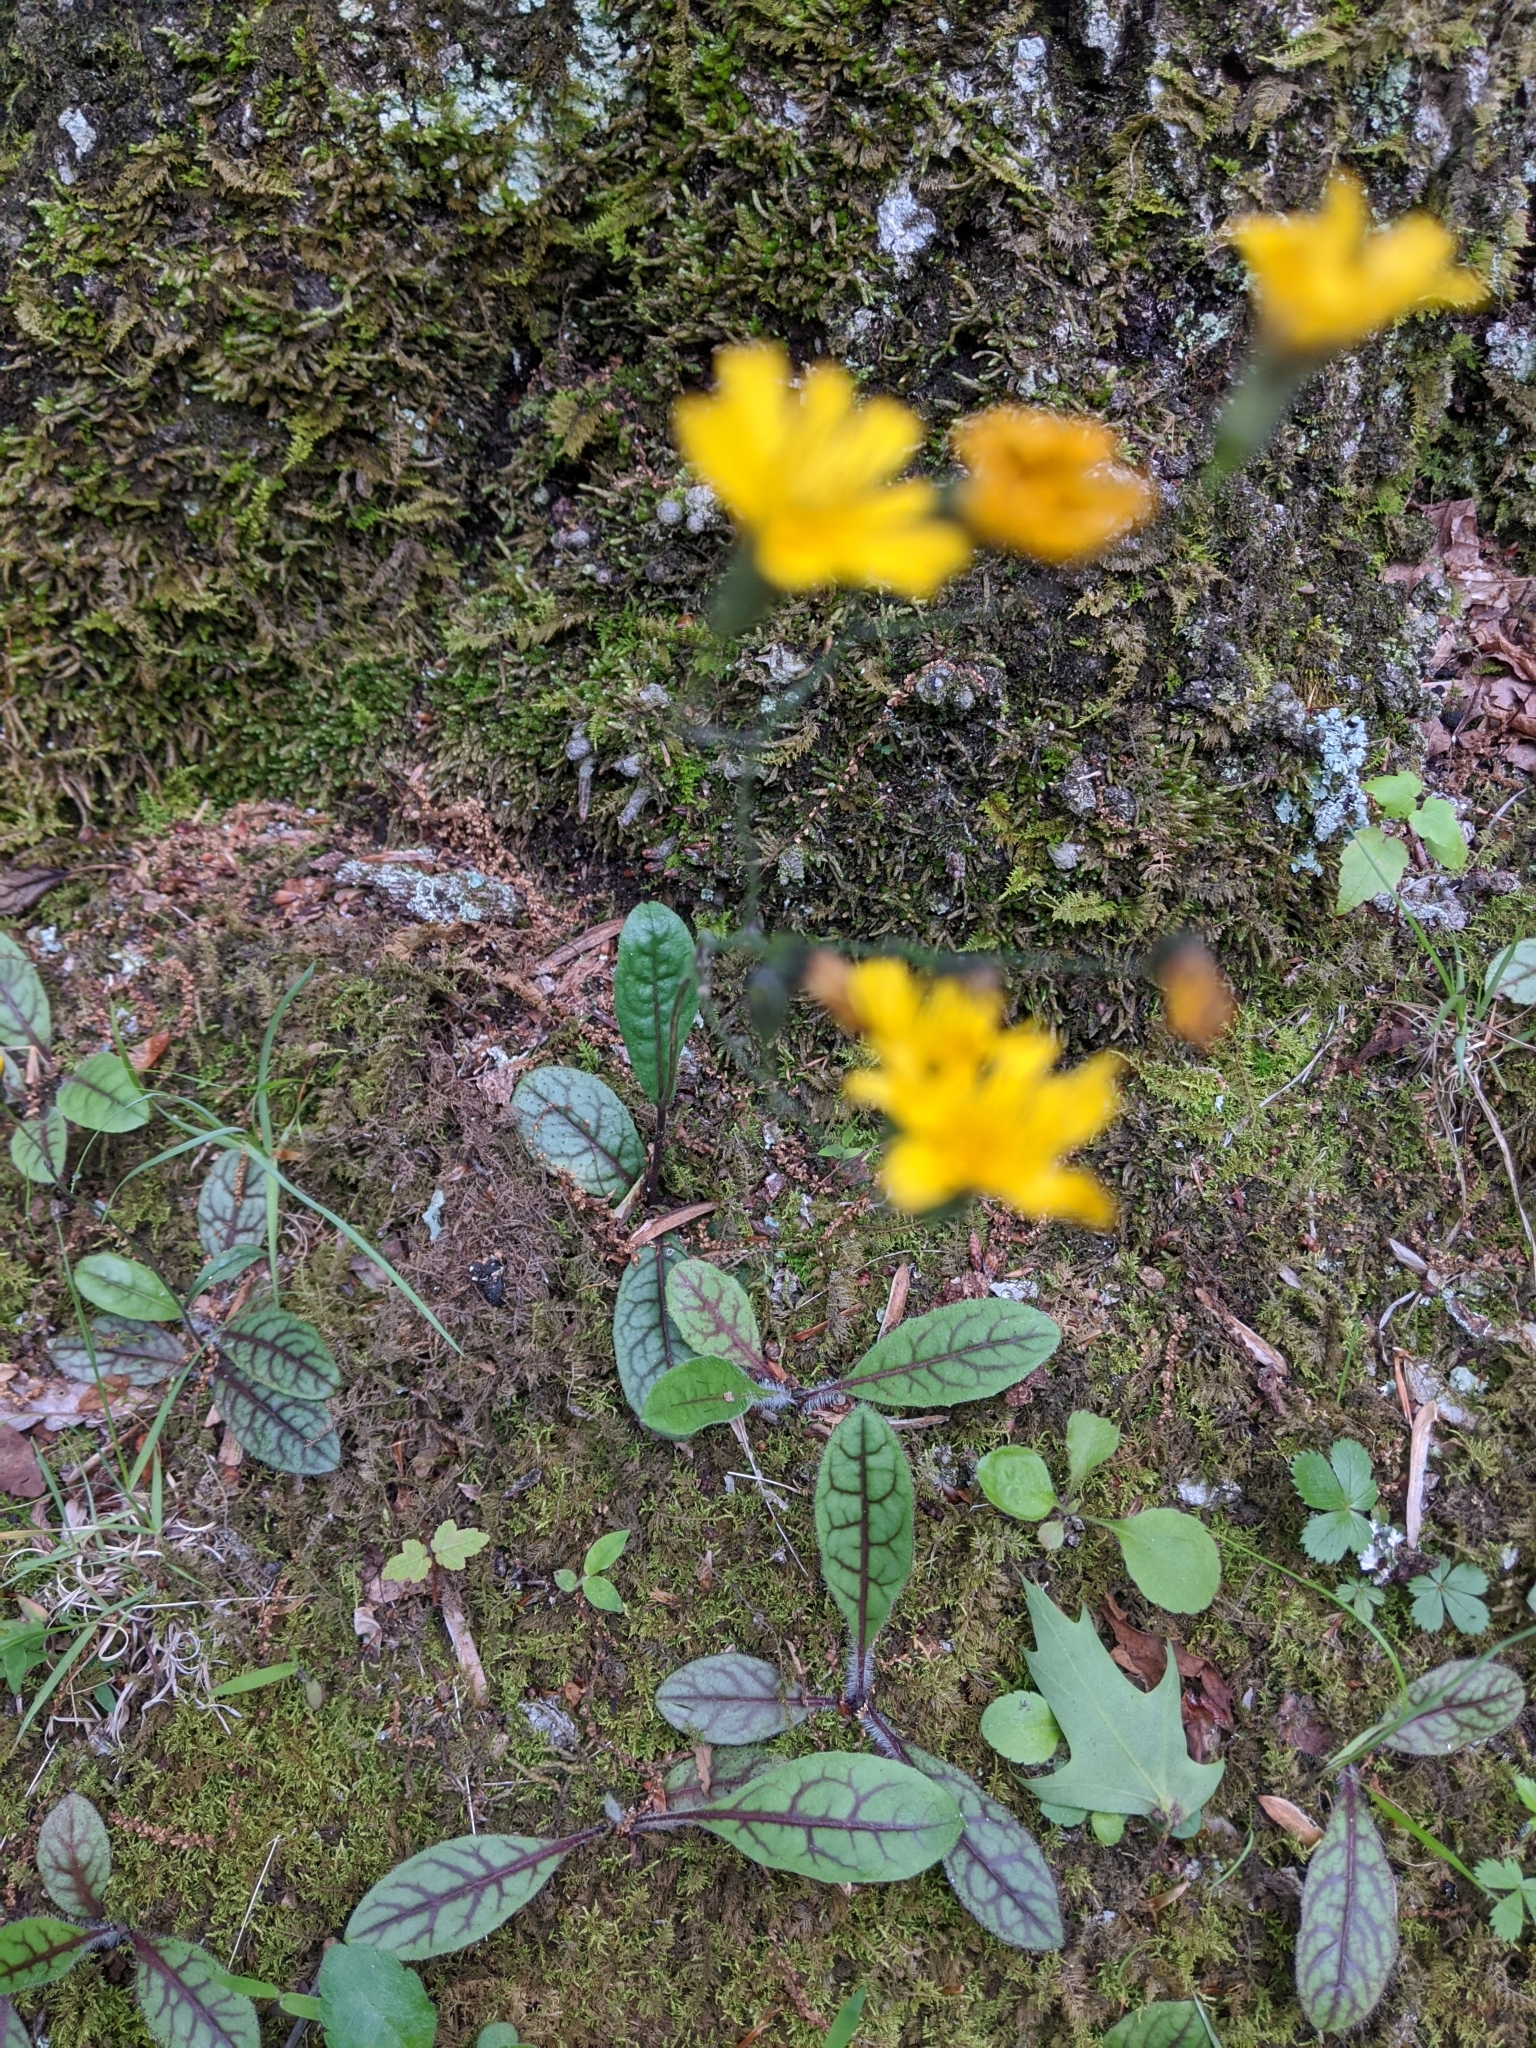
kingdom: Plantae
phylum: Tracheophyta
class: Magnoliopsida
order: Asterales
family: Asteraceae
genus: Hieracium
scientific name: Hieracium venosum
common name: Rattlesnake hawkweed
